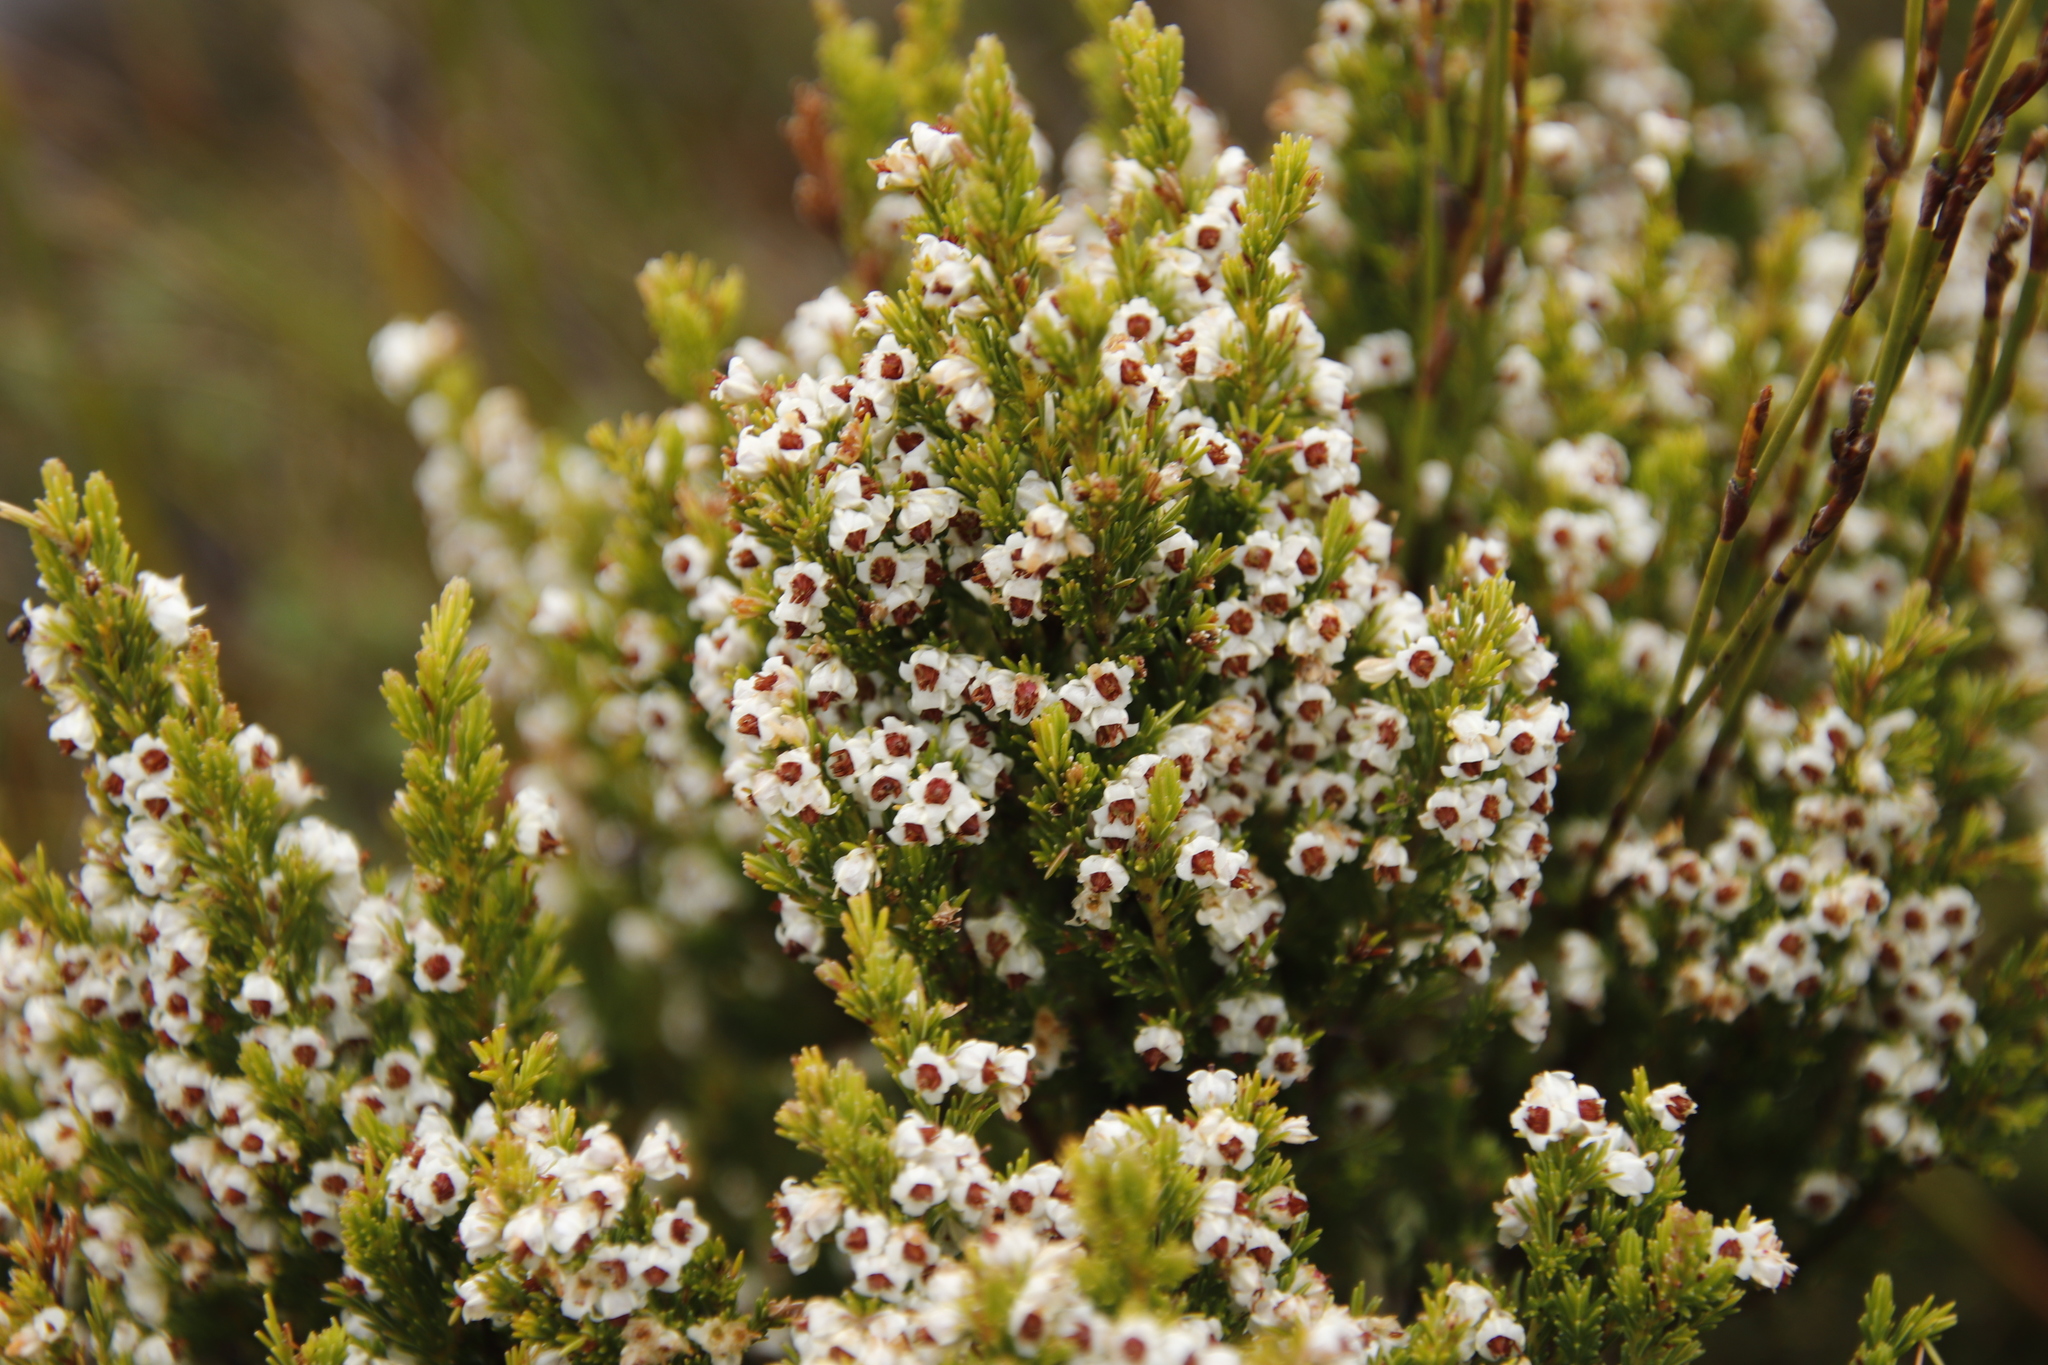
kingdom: Plantae
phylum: Tracheophyta
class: Magnoliopsida
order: Ericales
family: Ericaceae
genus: Erica
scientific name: Erica calycina
